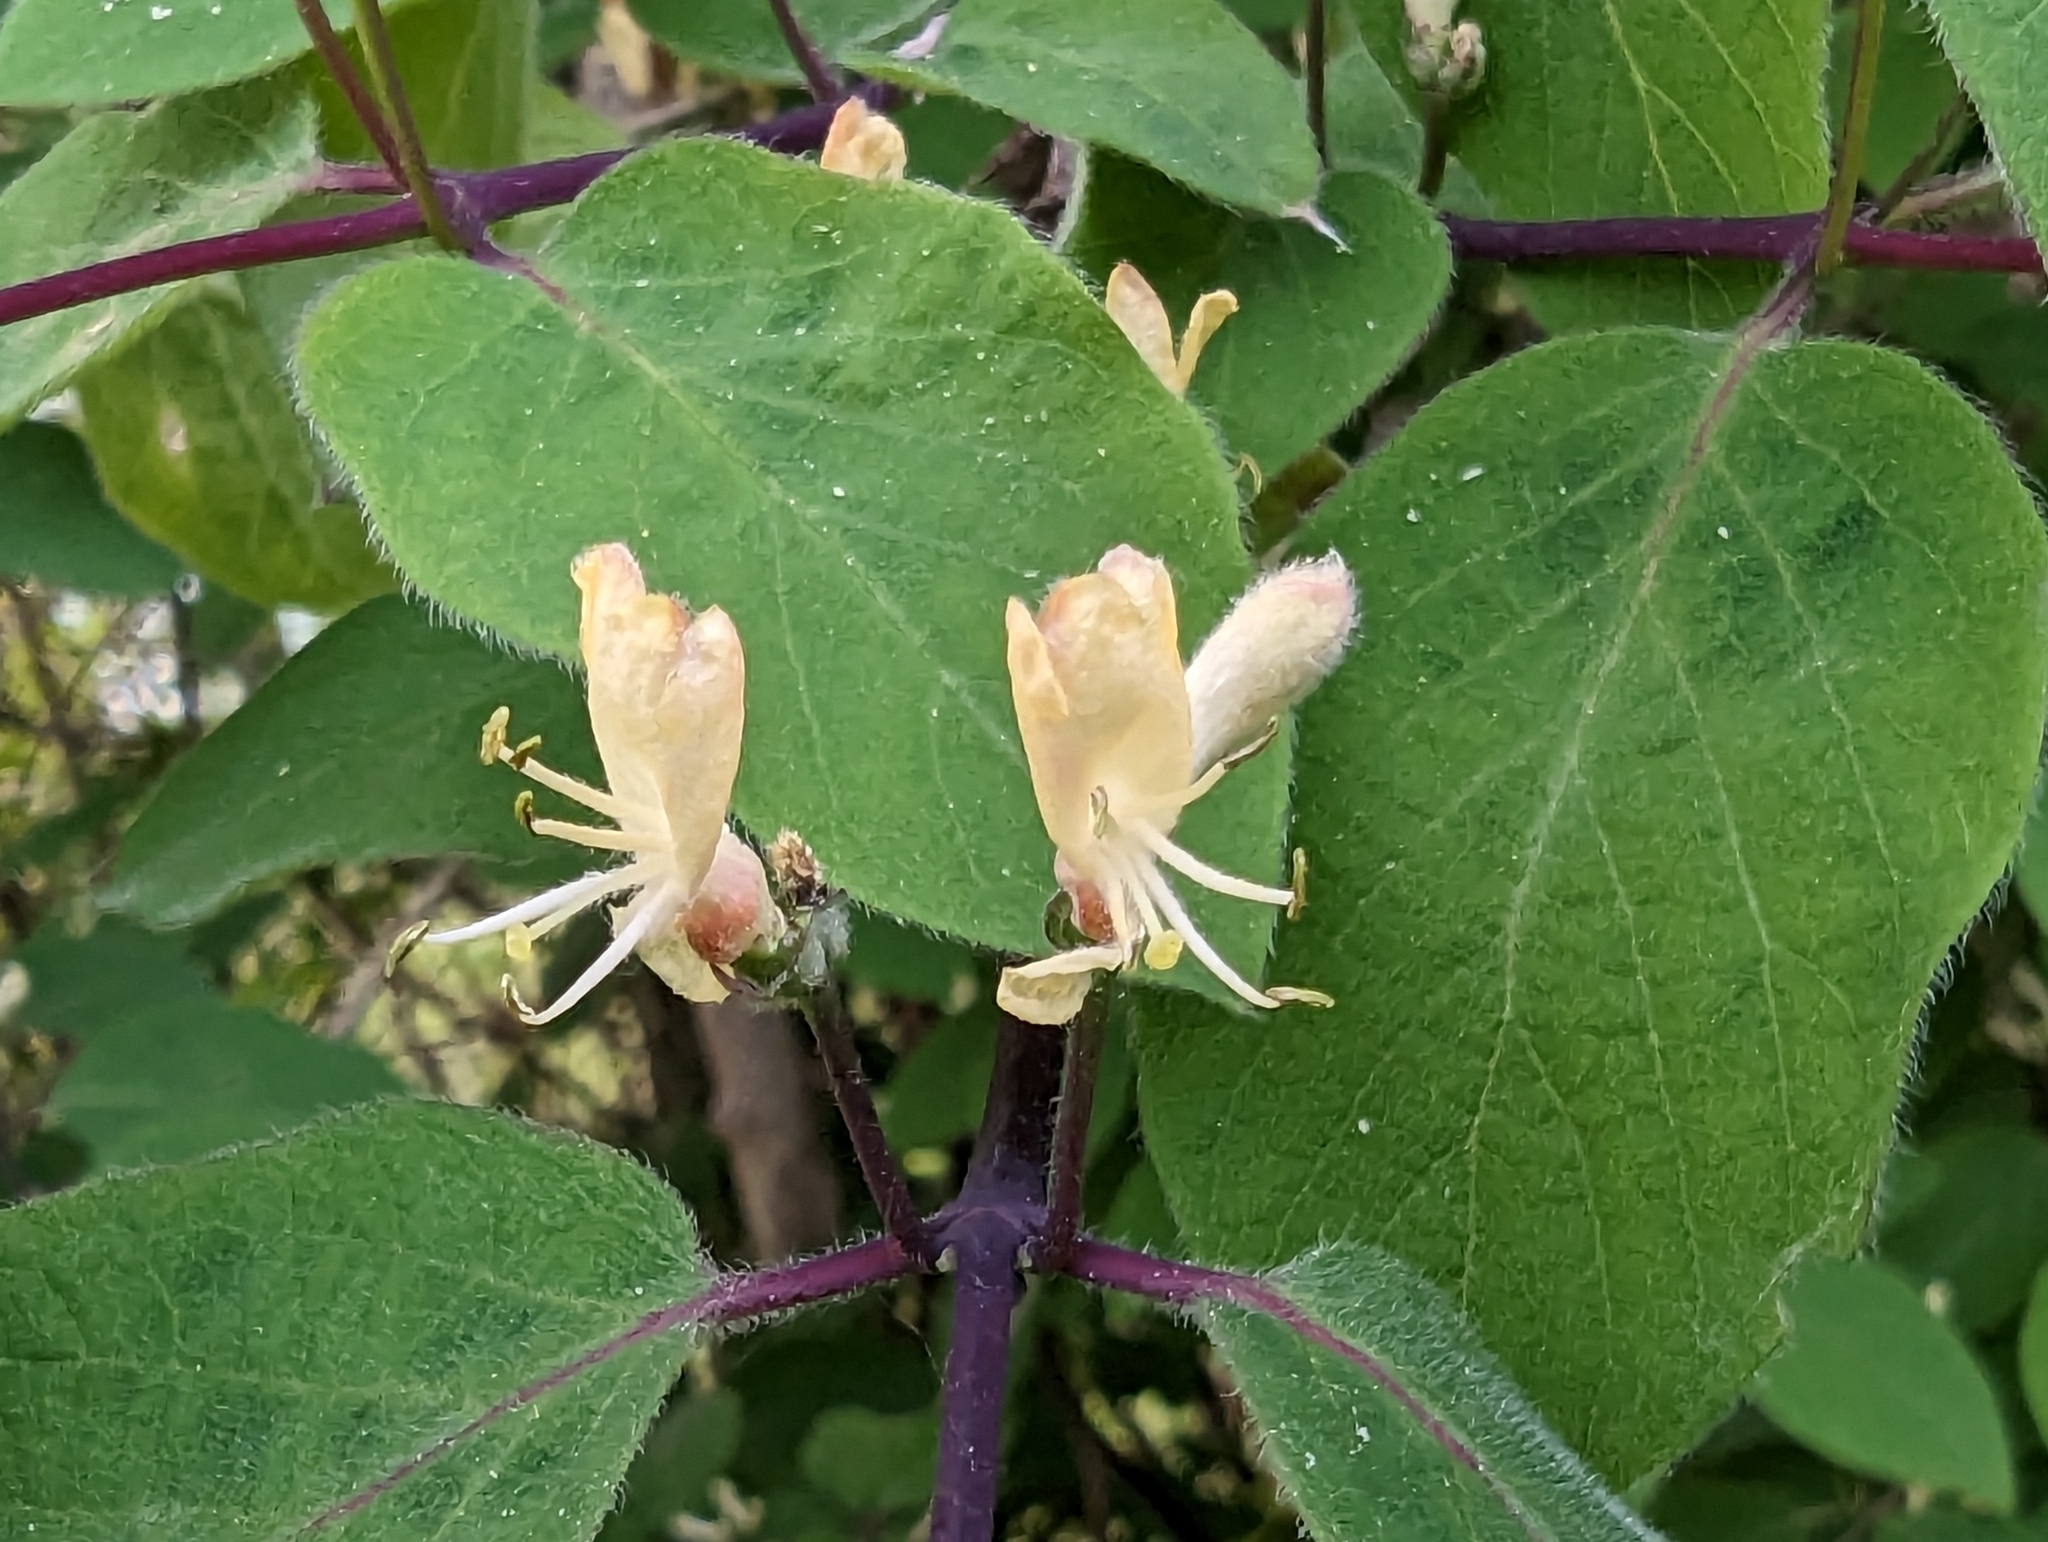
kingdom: Plantae
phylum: Tracheophyta
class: Magnoliopsida
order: Dipsacales
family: Caprifoliaceae
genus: Lonicera
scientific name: Lonicera xylosteum
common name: Fly honeysuckle
